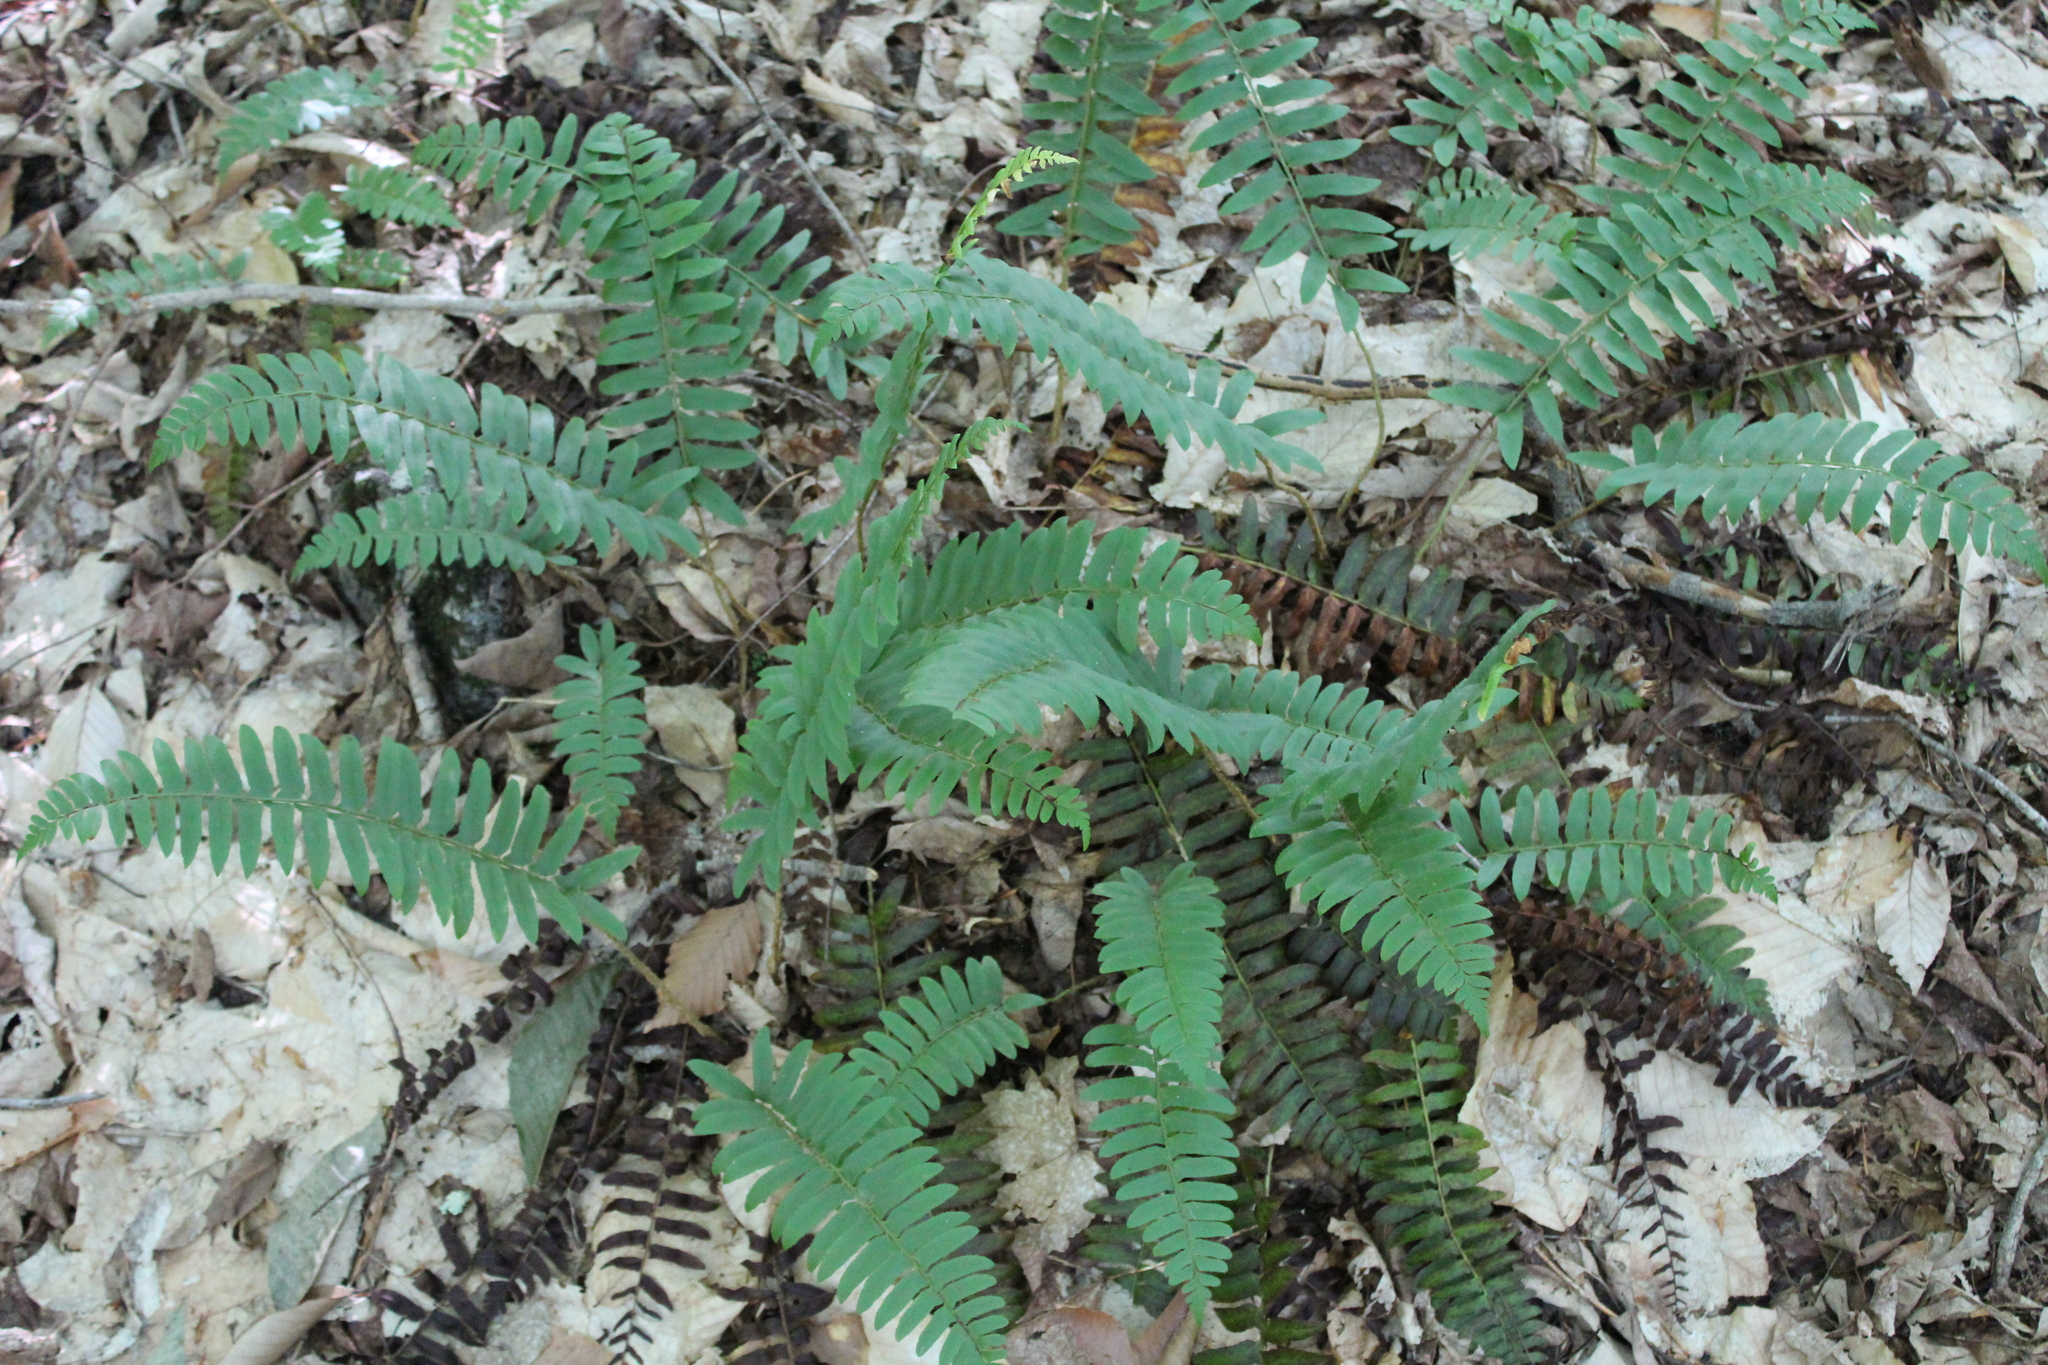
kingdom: Plantae
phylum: Tracheophyta
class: Polypodiopsida
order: Polypodiales
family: Dryopteridaceae
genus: Polystichum
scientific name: Polystichum acrostichoides
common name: Christmas fern
